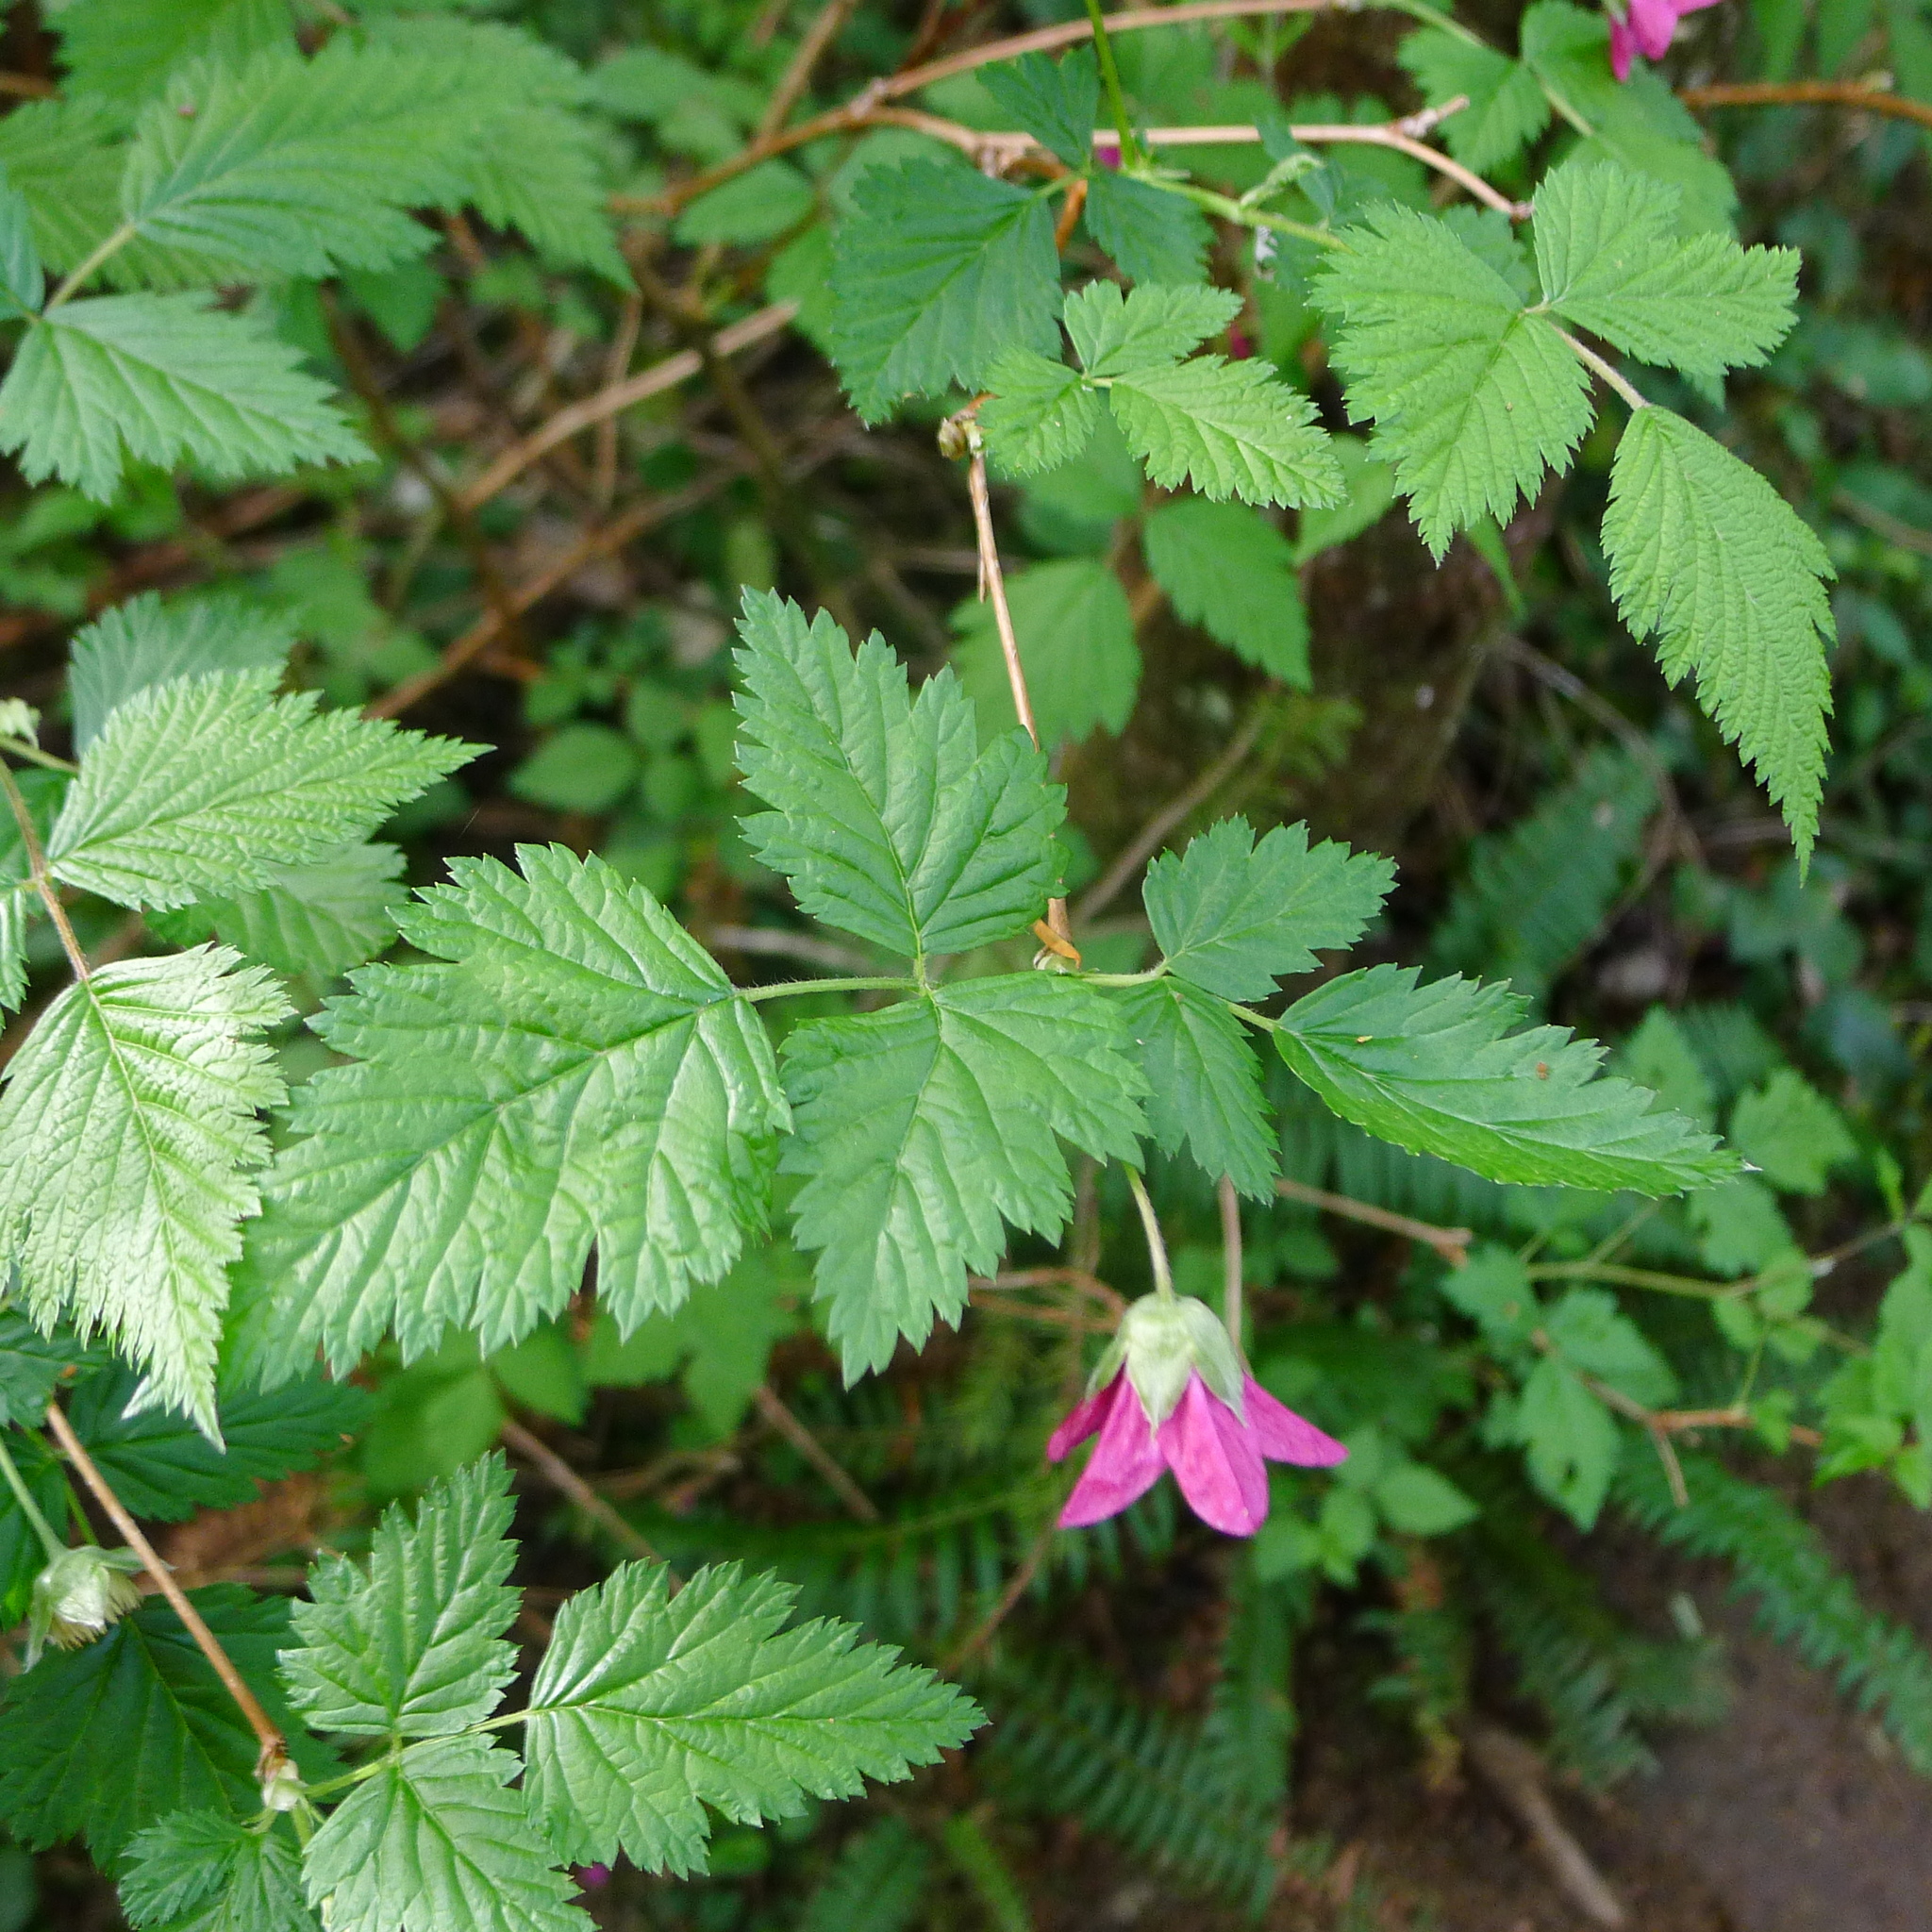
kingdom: Plantae
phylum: Tracheophyta
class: Magnoliopsida
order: Rosales
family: Rosaceae
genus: Rubus
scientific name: Rubus spectabilis
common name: Salmonberry
